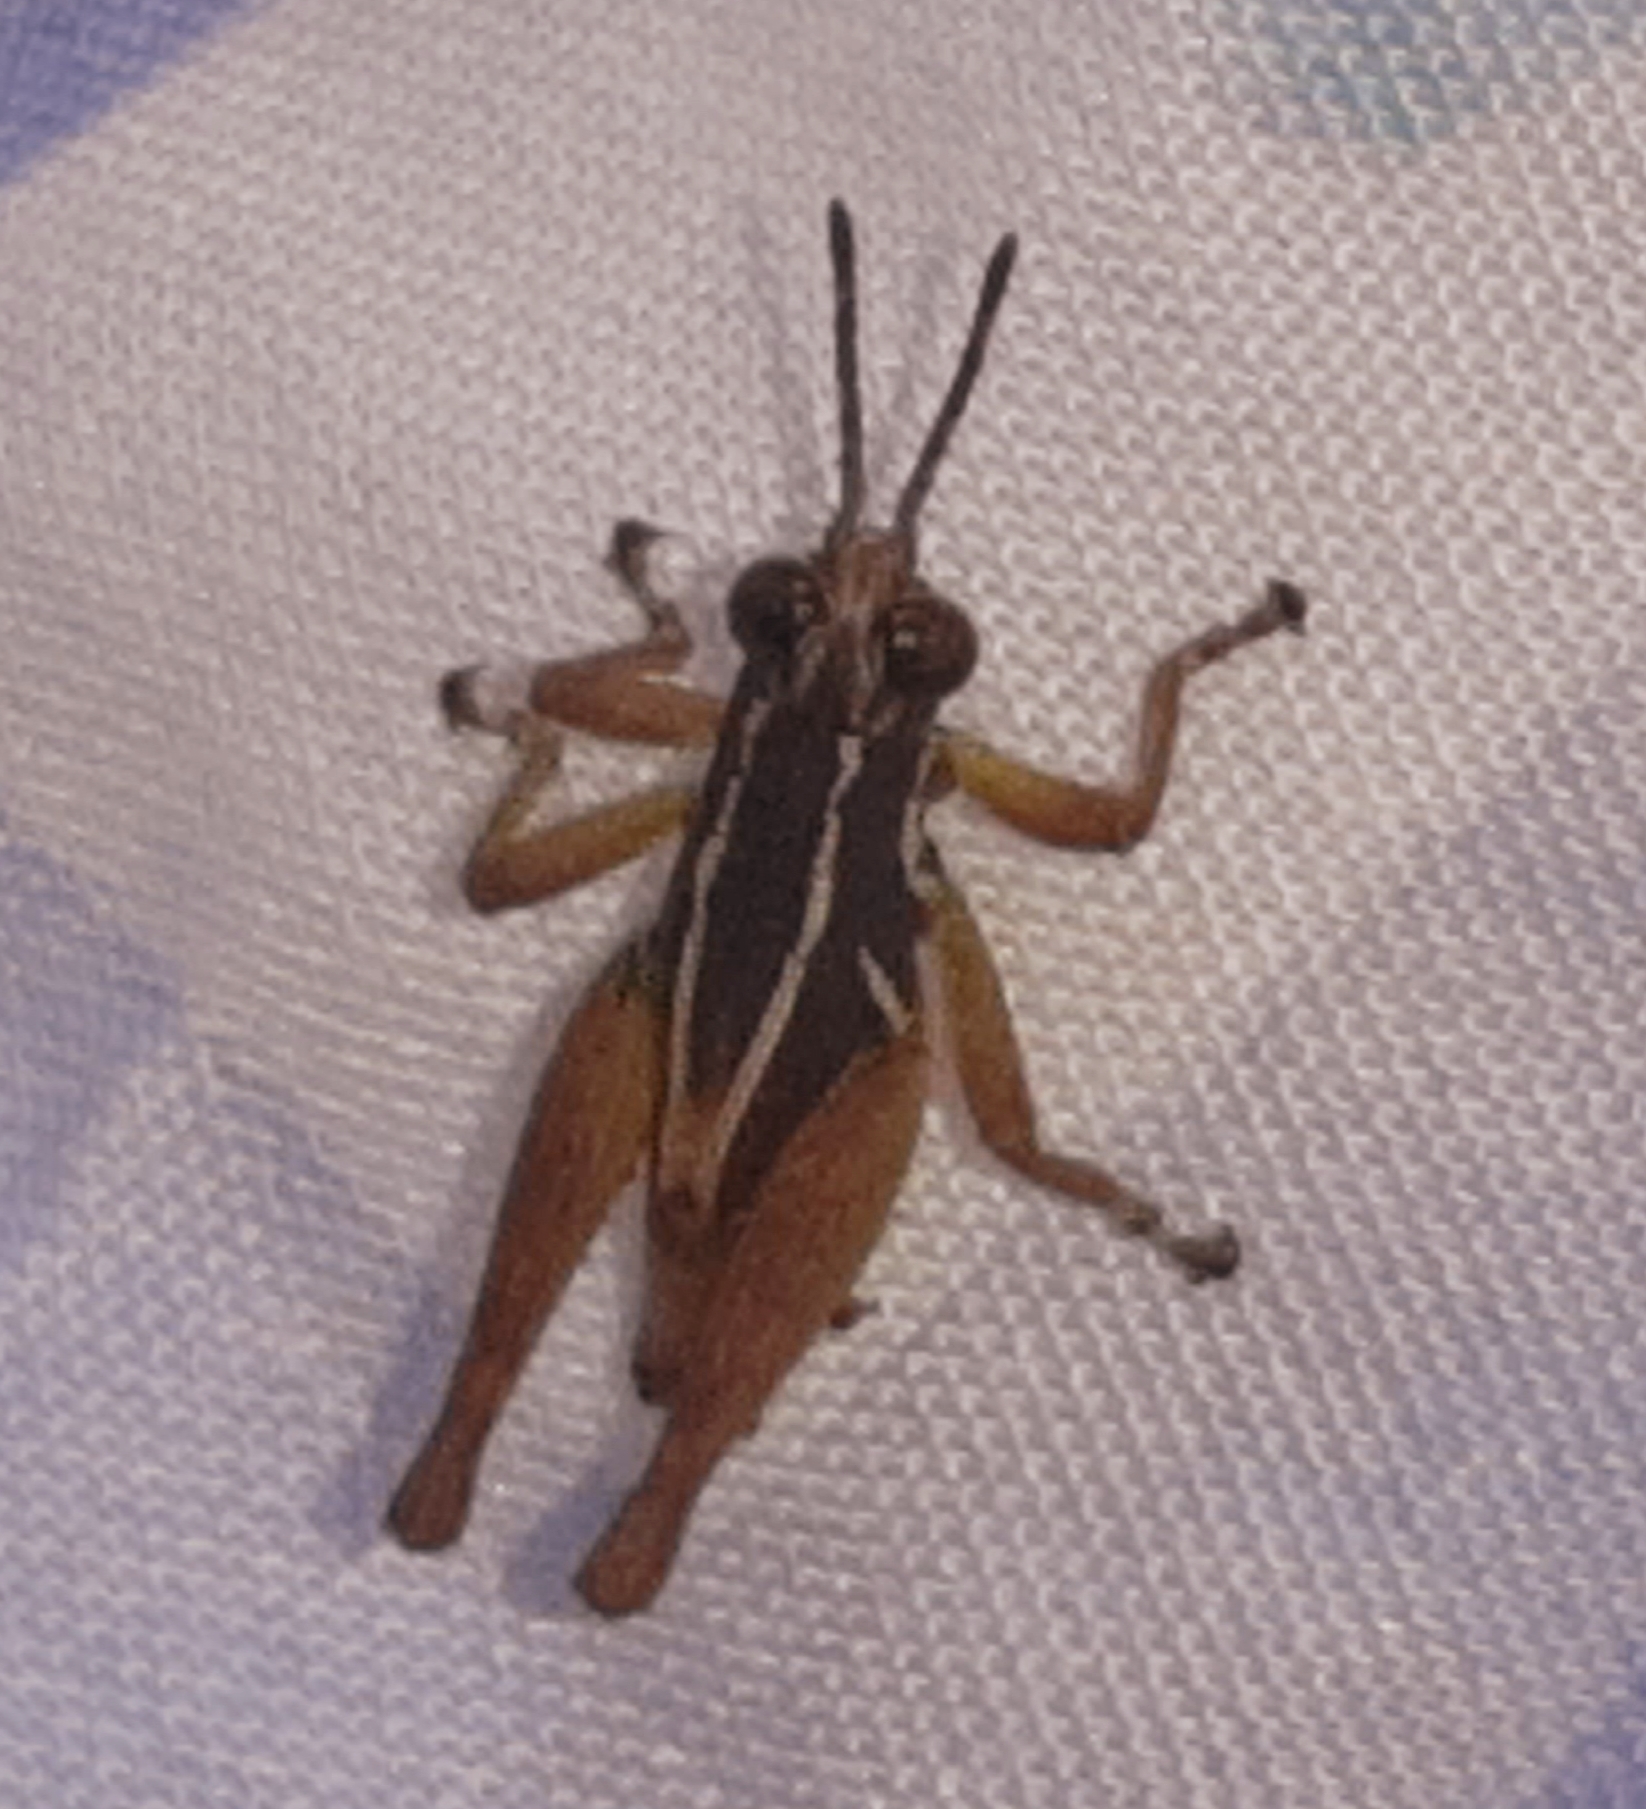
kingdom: Animalia
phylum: Arthropoda
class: Insecta
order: Orthoptera
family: Acrididae
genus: Leptomerinthoprora
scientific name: Leptomerinthoprora corticina
